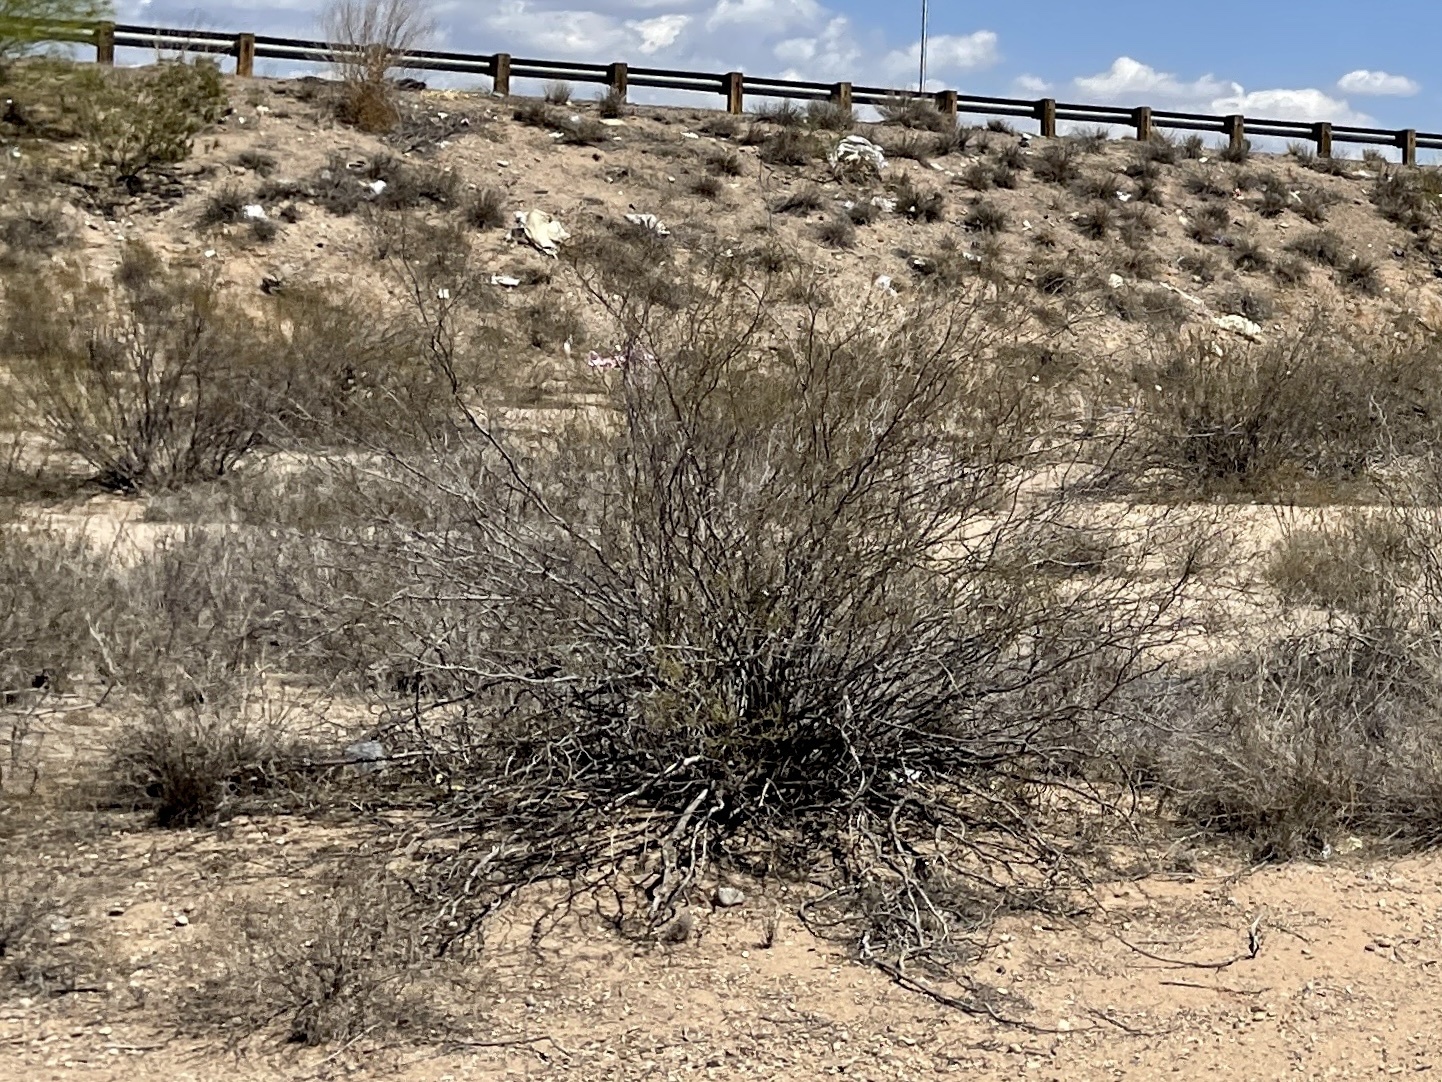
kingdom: Plantae
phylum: Tracheophyta
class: Magnoliopsida
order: Zygophyllales
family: Zygophyllaceae
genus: Larrea
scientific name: Larrea tridentata
